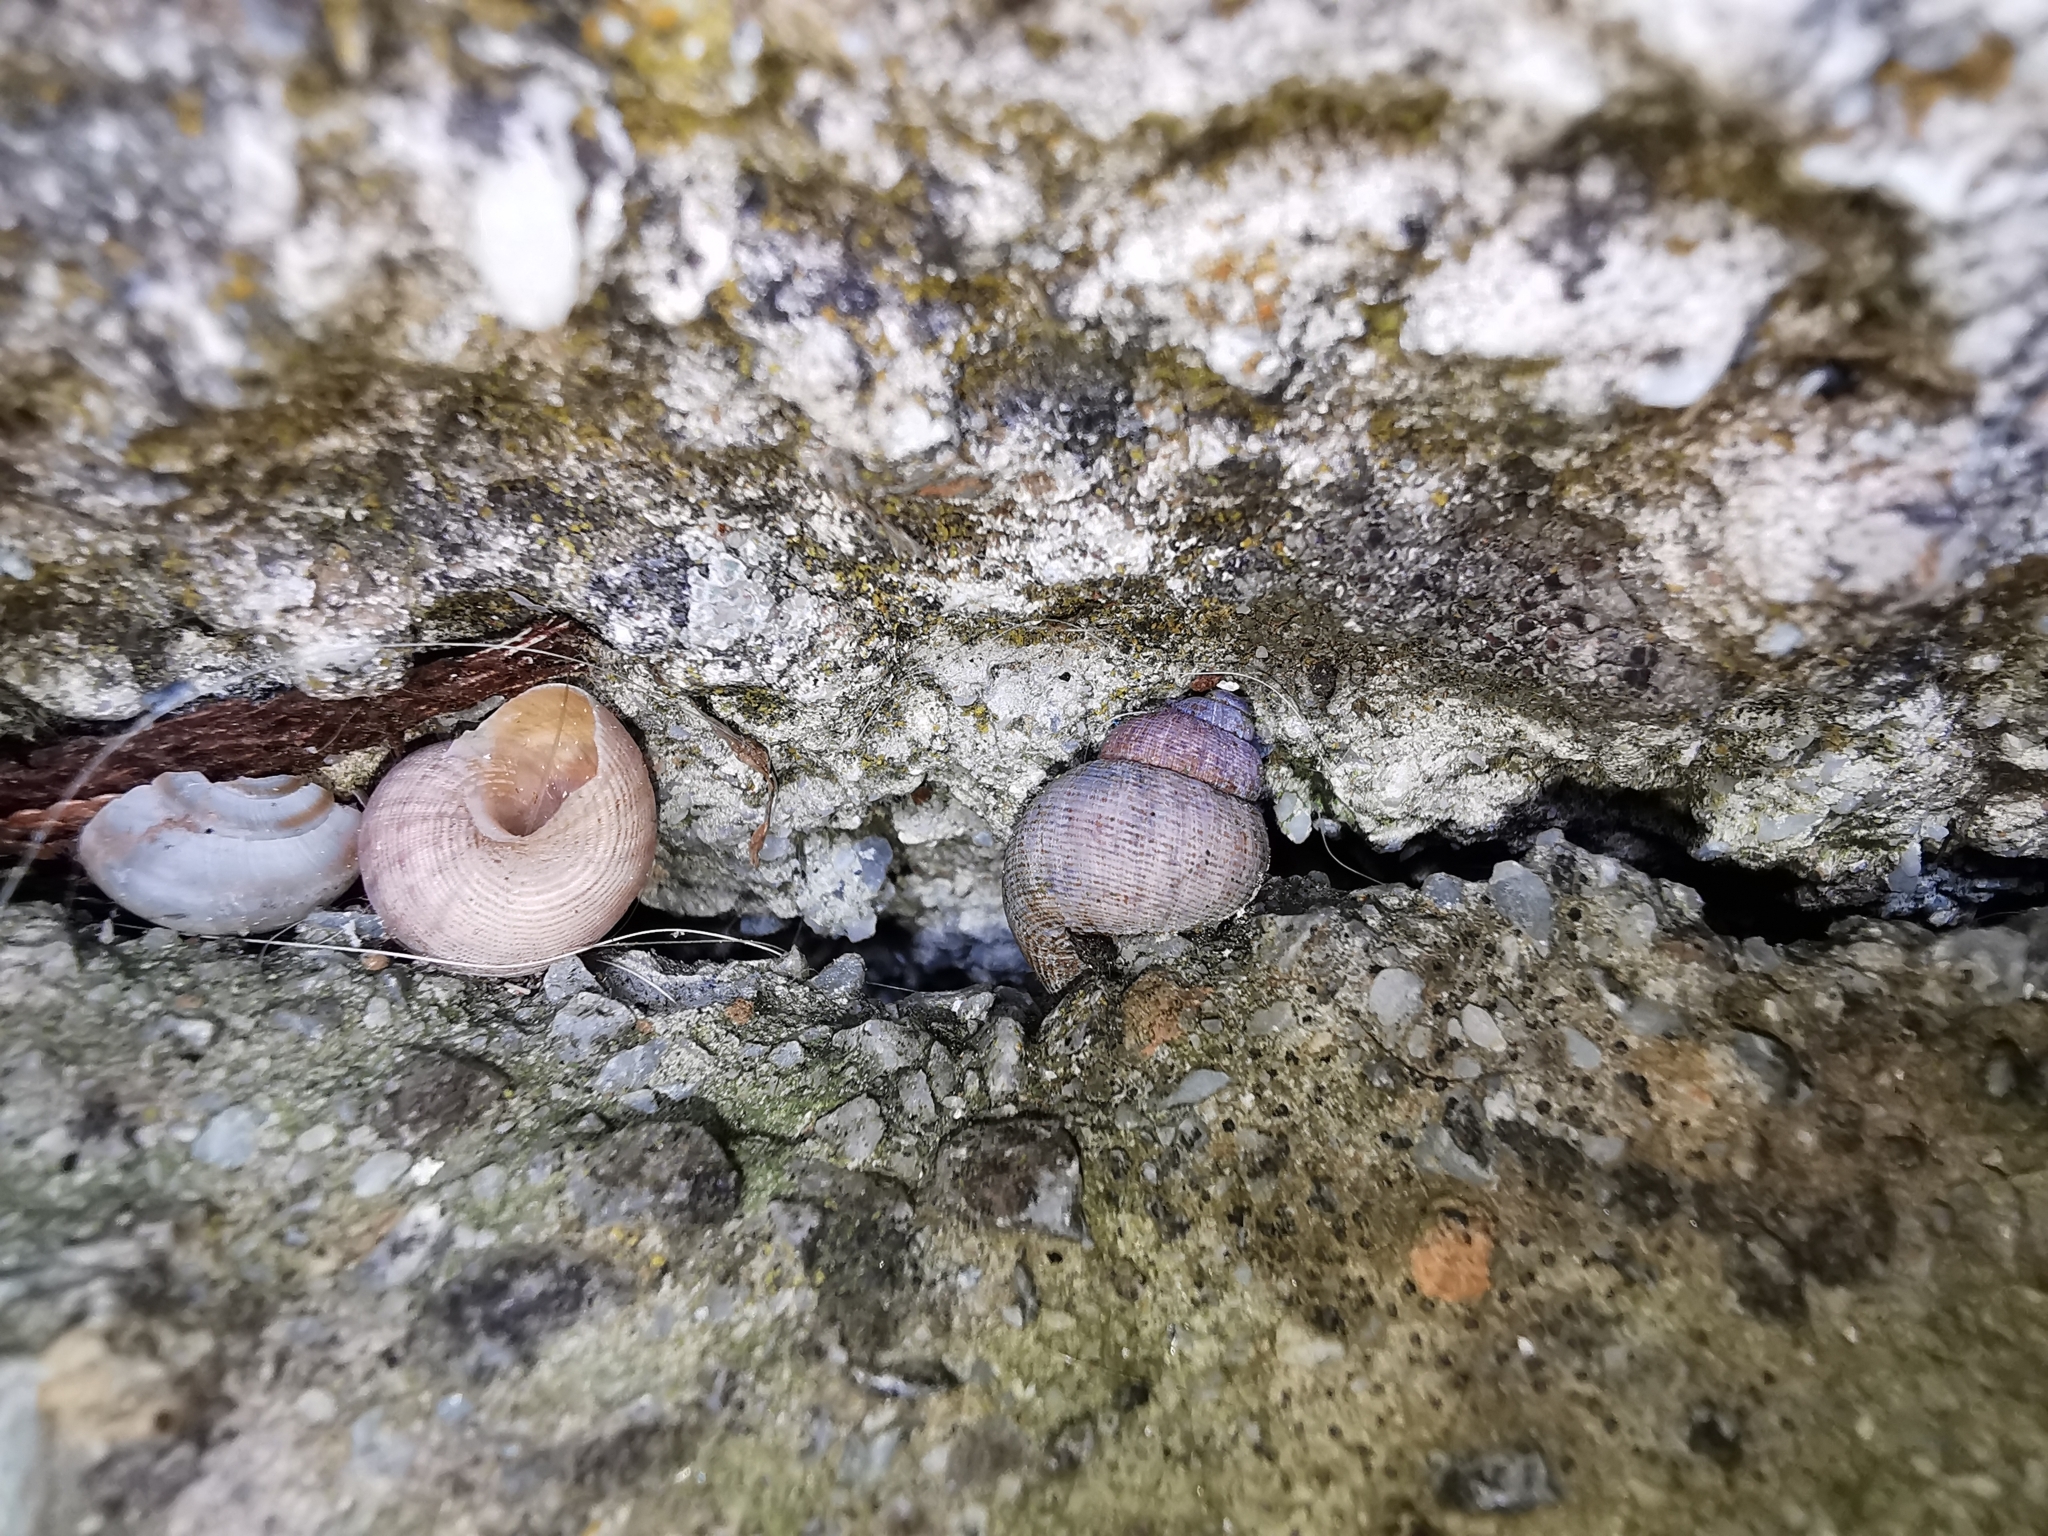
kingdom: Animalia
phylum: Mollusca
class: Gastropoda
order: Littorinimorpha
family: Pomatiidae
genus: Pomatias
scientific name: Pomatias elegans
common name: Red-mouthed snail
